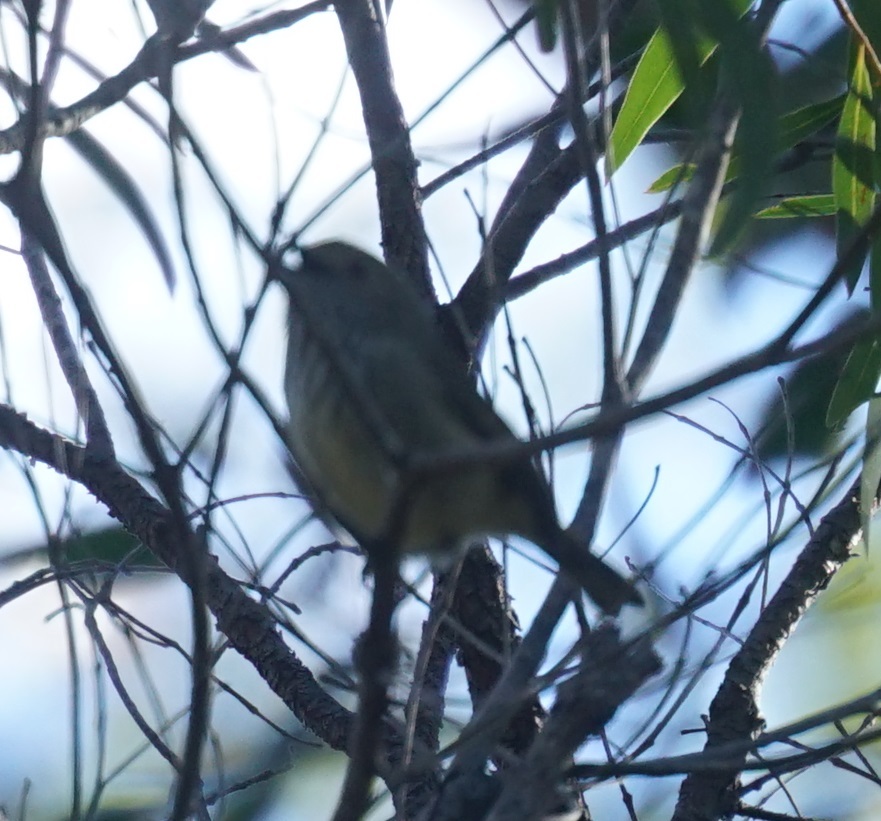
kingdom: Animalia
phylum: Chordata
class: Aves
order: Passeriformes
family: Acanthizidae
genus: Acanthiza
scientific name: Acanthiza pusilla
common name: Brown thornbill
